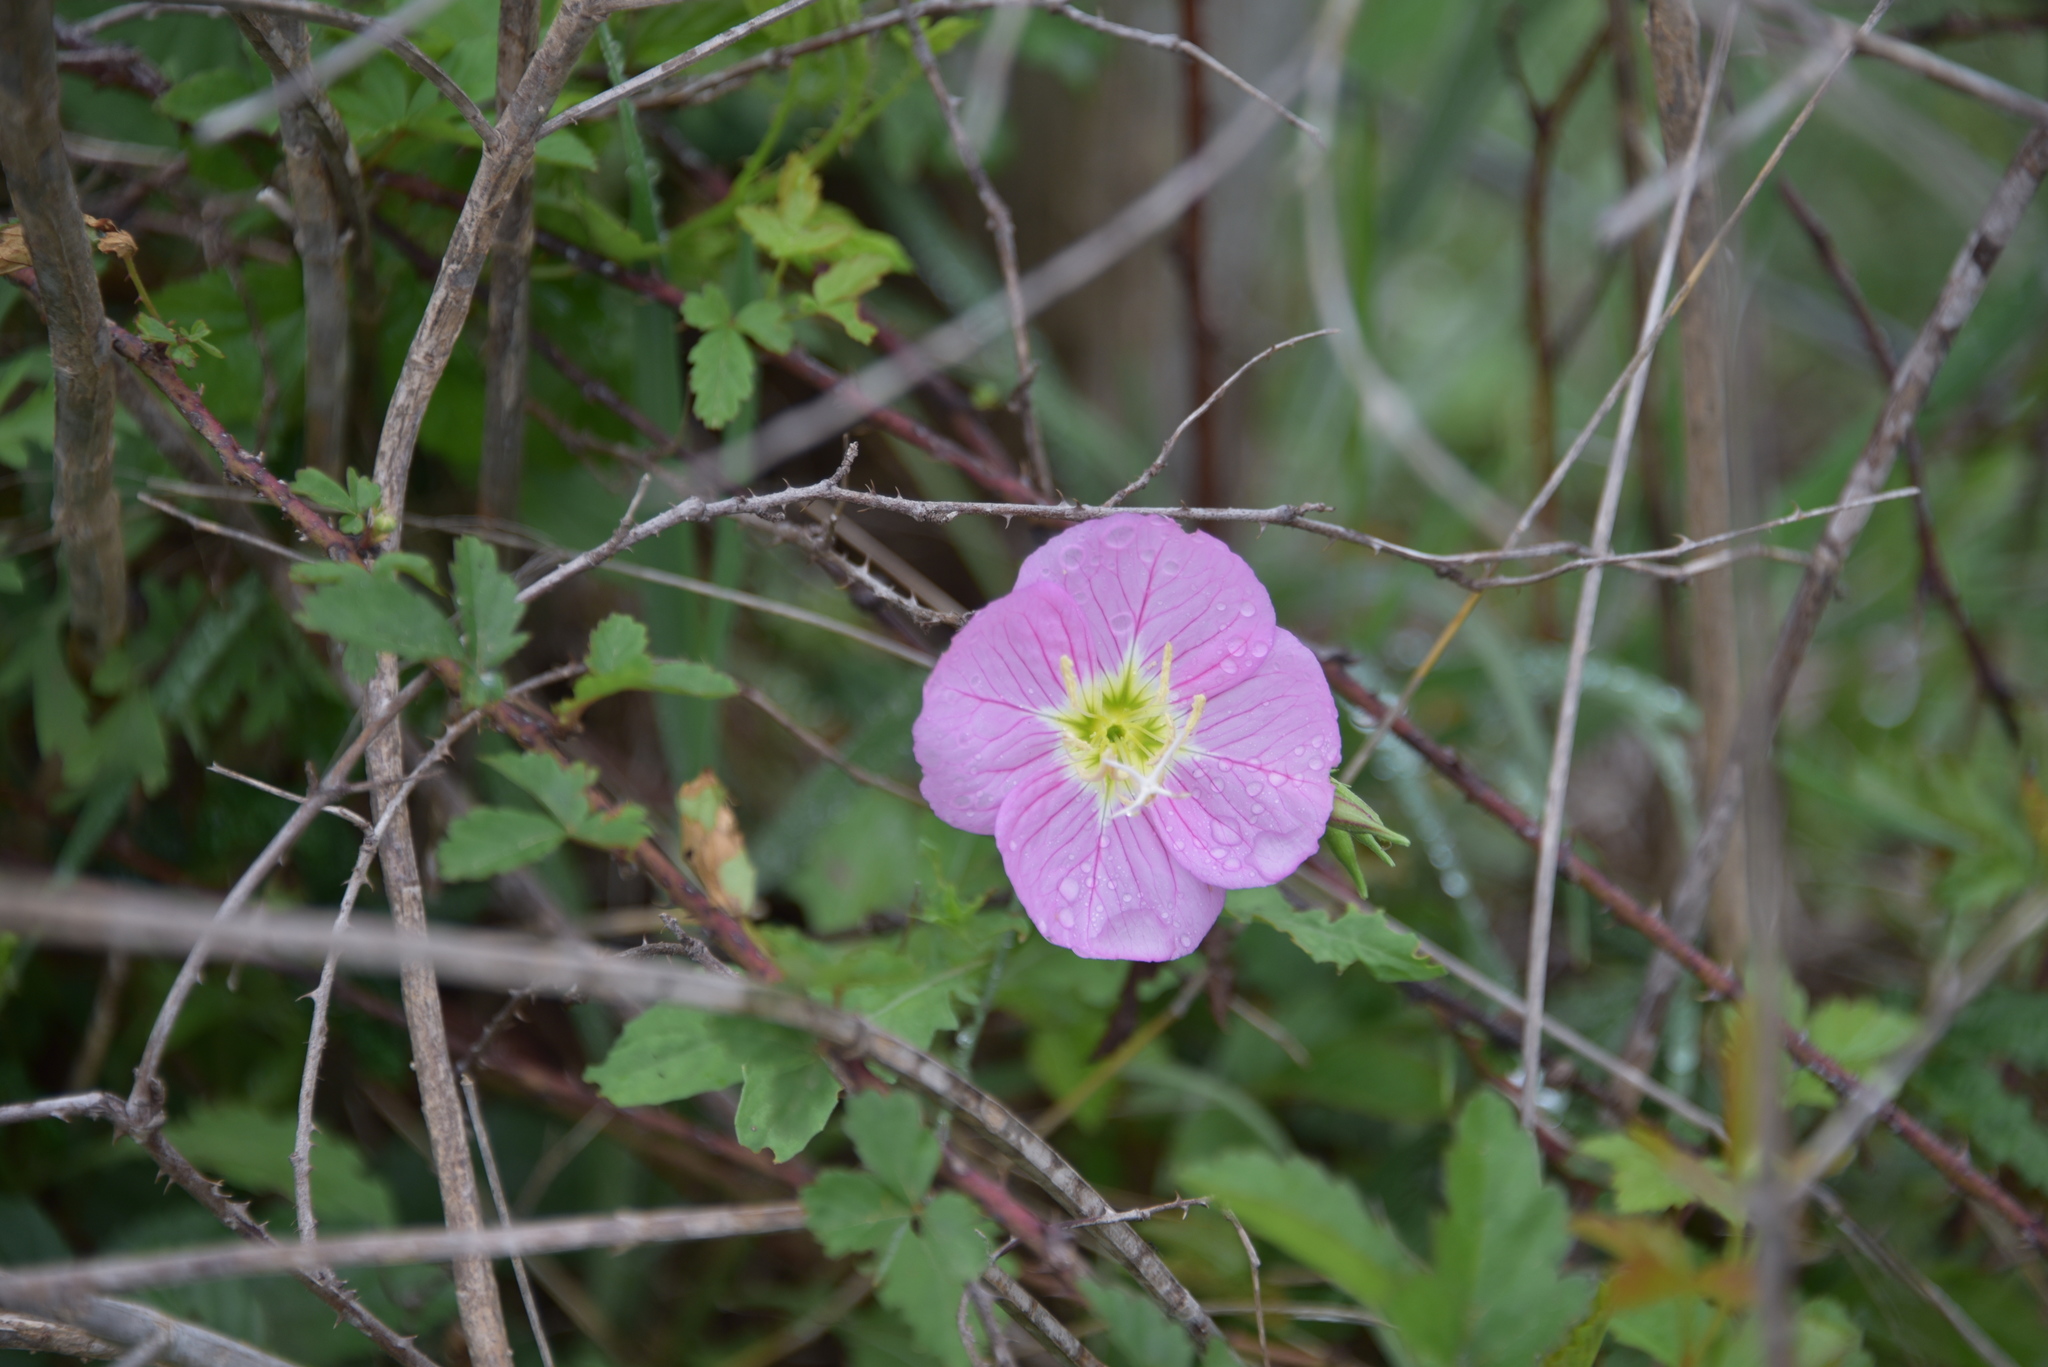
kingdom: Plantae
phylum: Tracheophyta
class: Magnoliopsida
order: Myrtales
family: Onagraceae
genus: Oenothera
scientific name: Oenothera speciosa
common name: White evening-primrose
